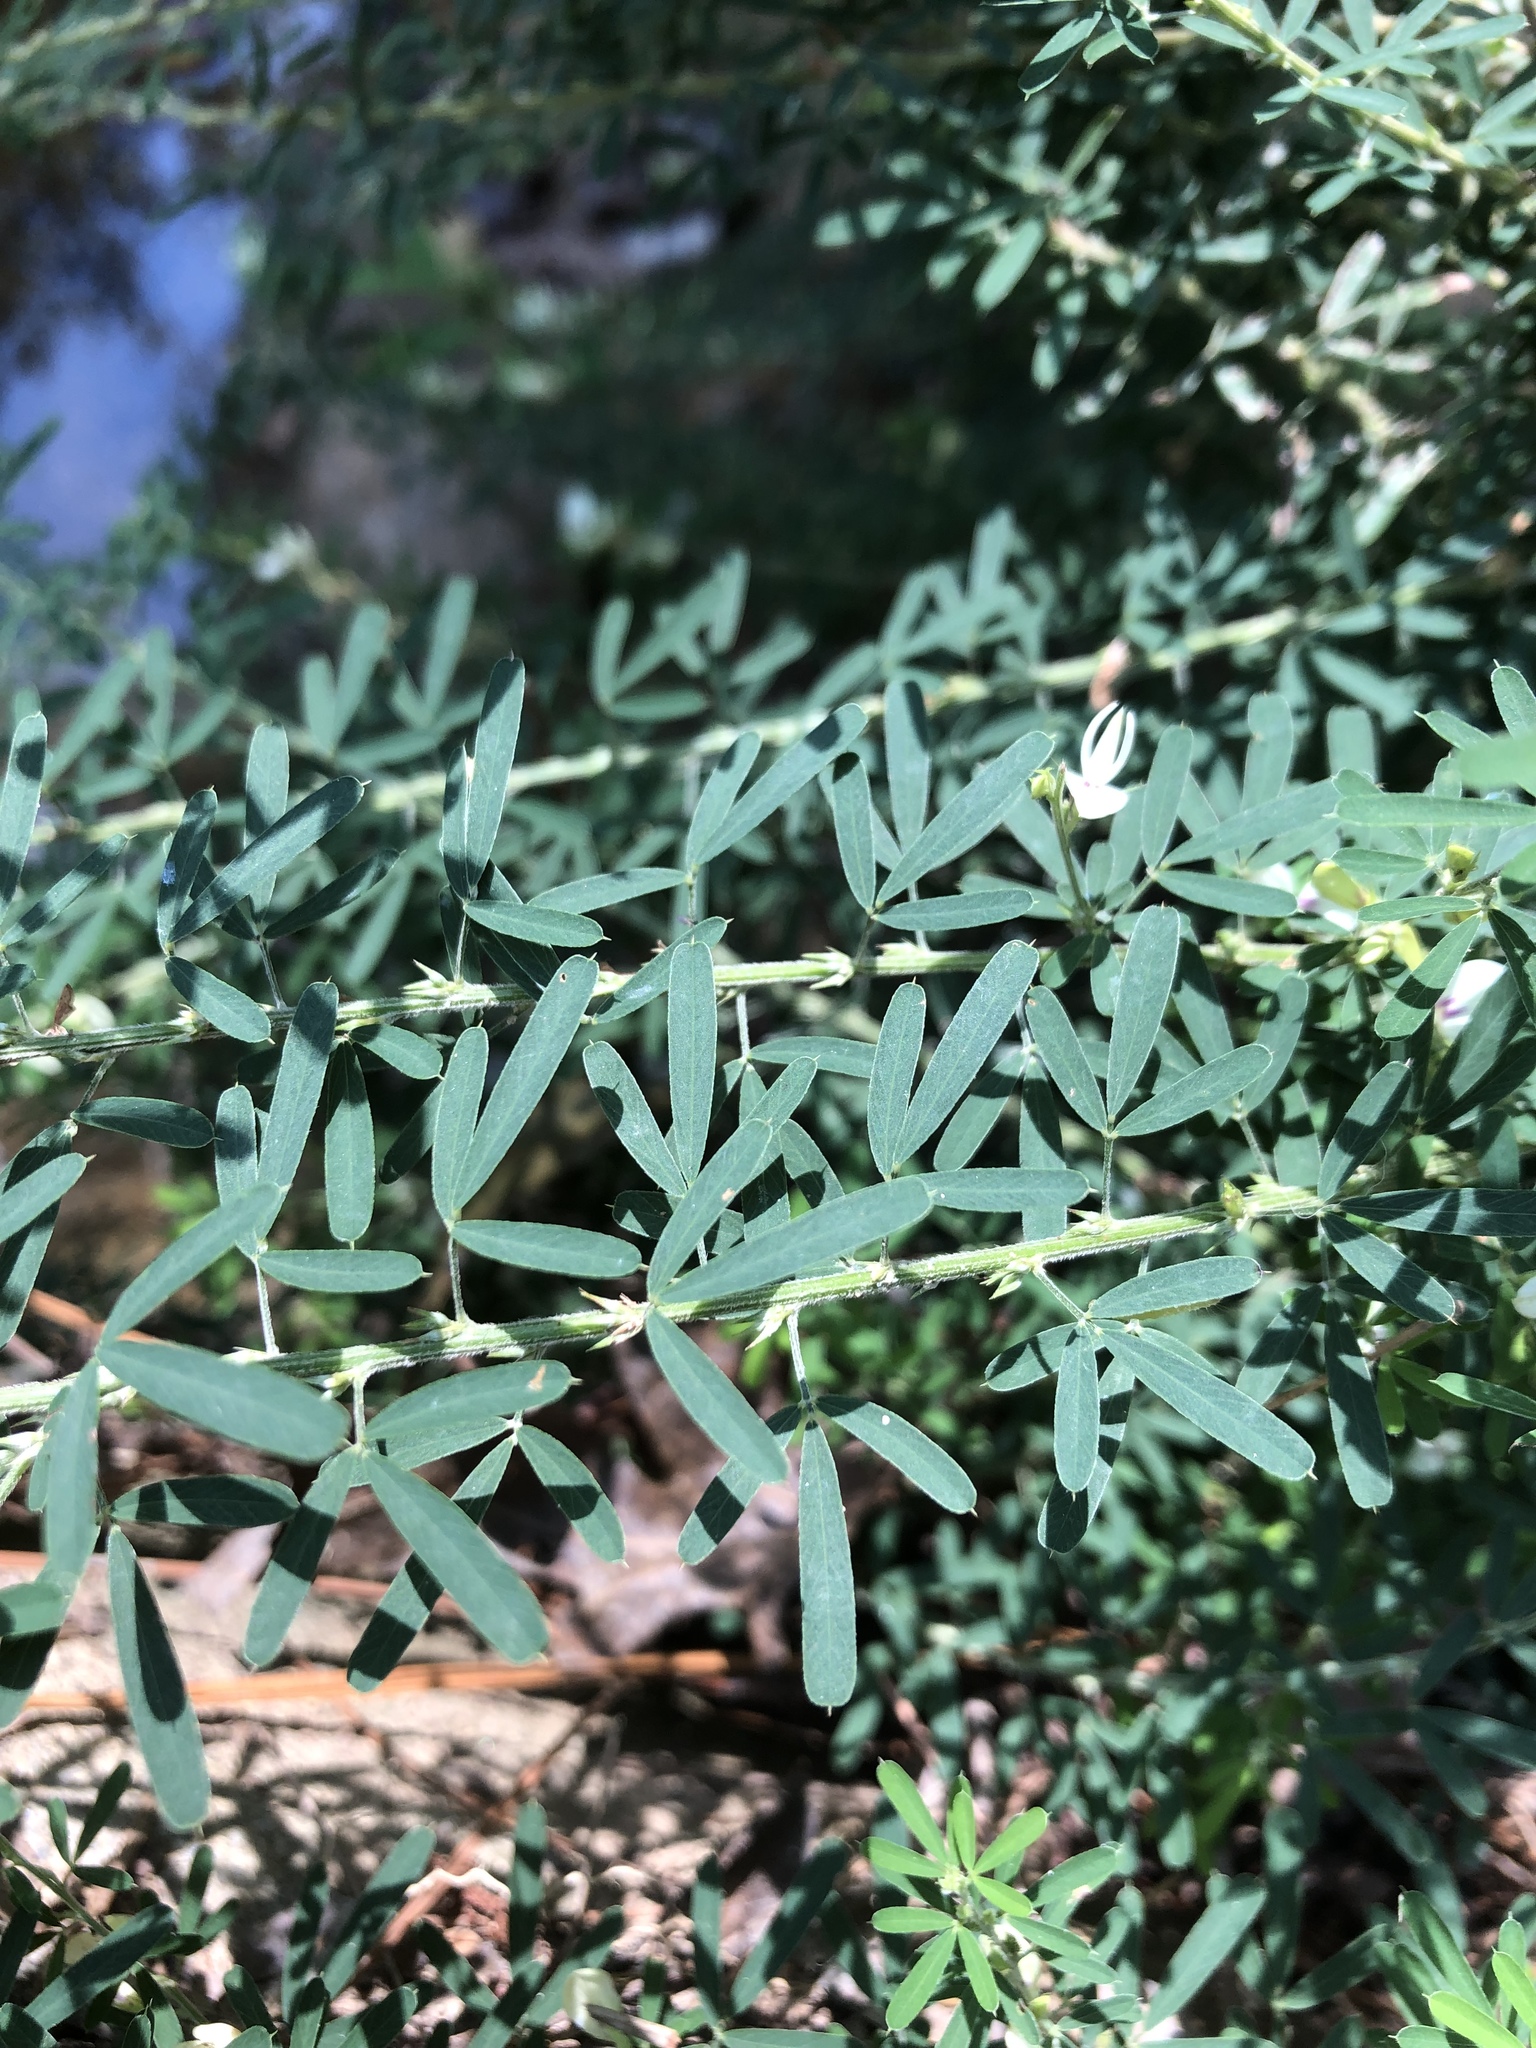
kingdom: Plantae
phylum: Tracheophyta
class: Magnoliopsida
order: Fabales
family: Fabaceae
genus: Lespedeza
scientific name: Lespedeza cuneata
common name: Chinese bush-clover
